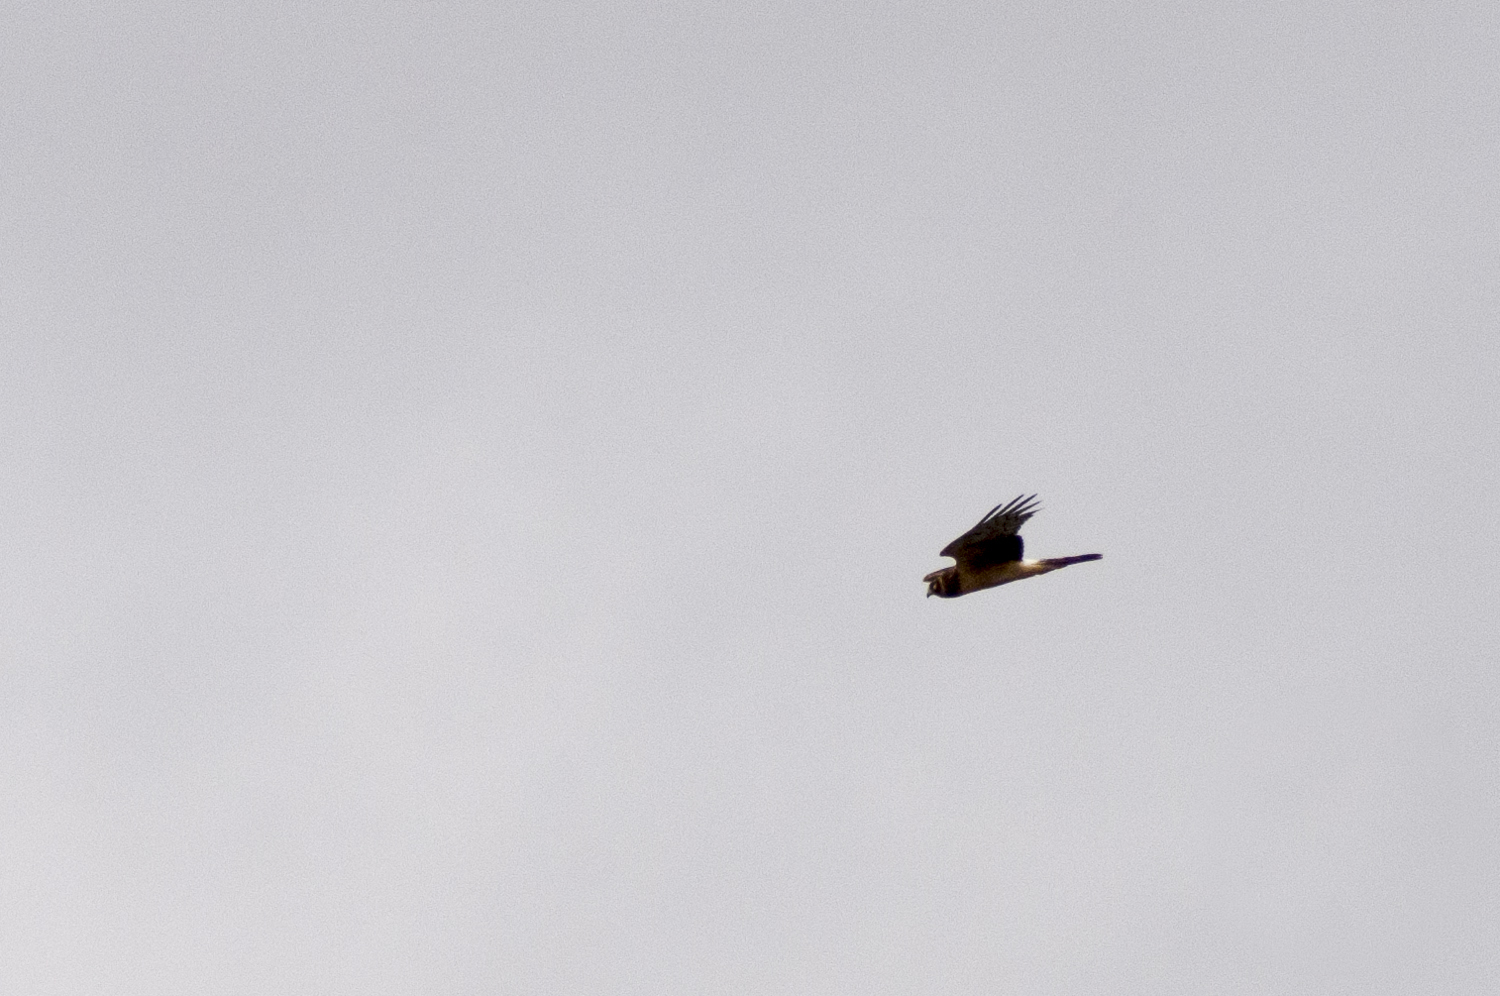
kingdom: Animalia
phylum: Chordata
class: Aves
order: Accipitriformes
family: Accipitridae
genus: Circus
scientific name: Circus cyaneus
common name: Hen harrier
